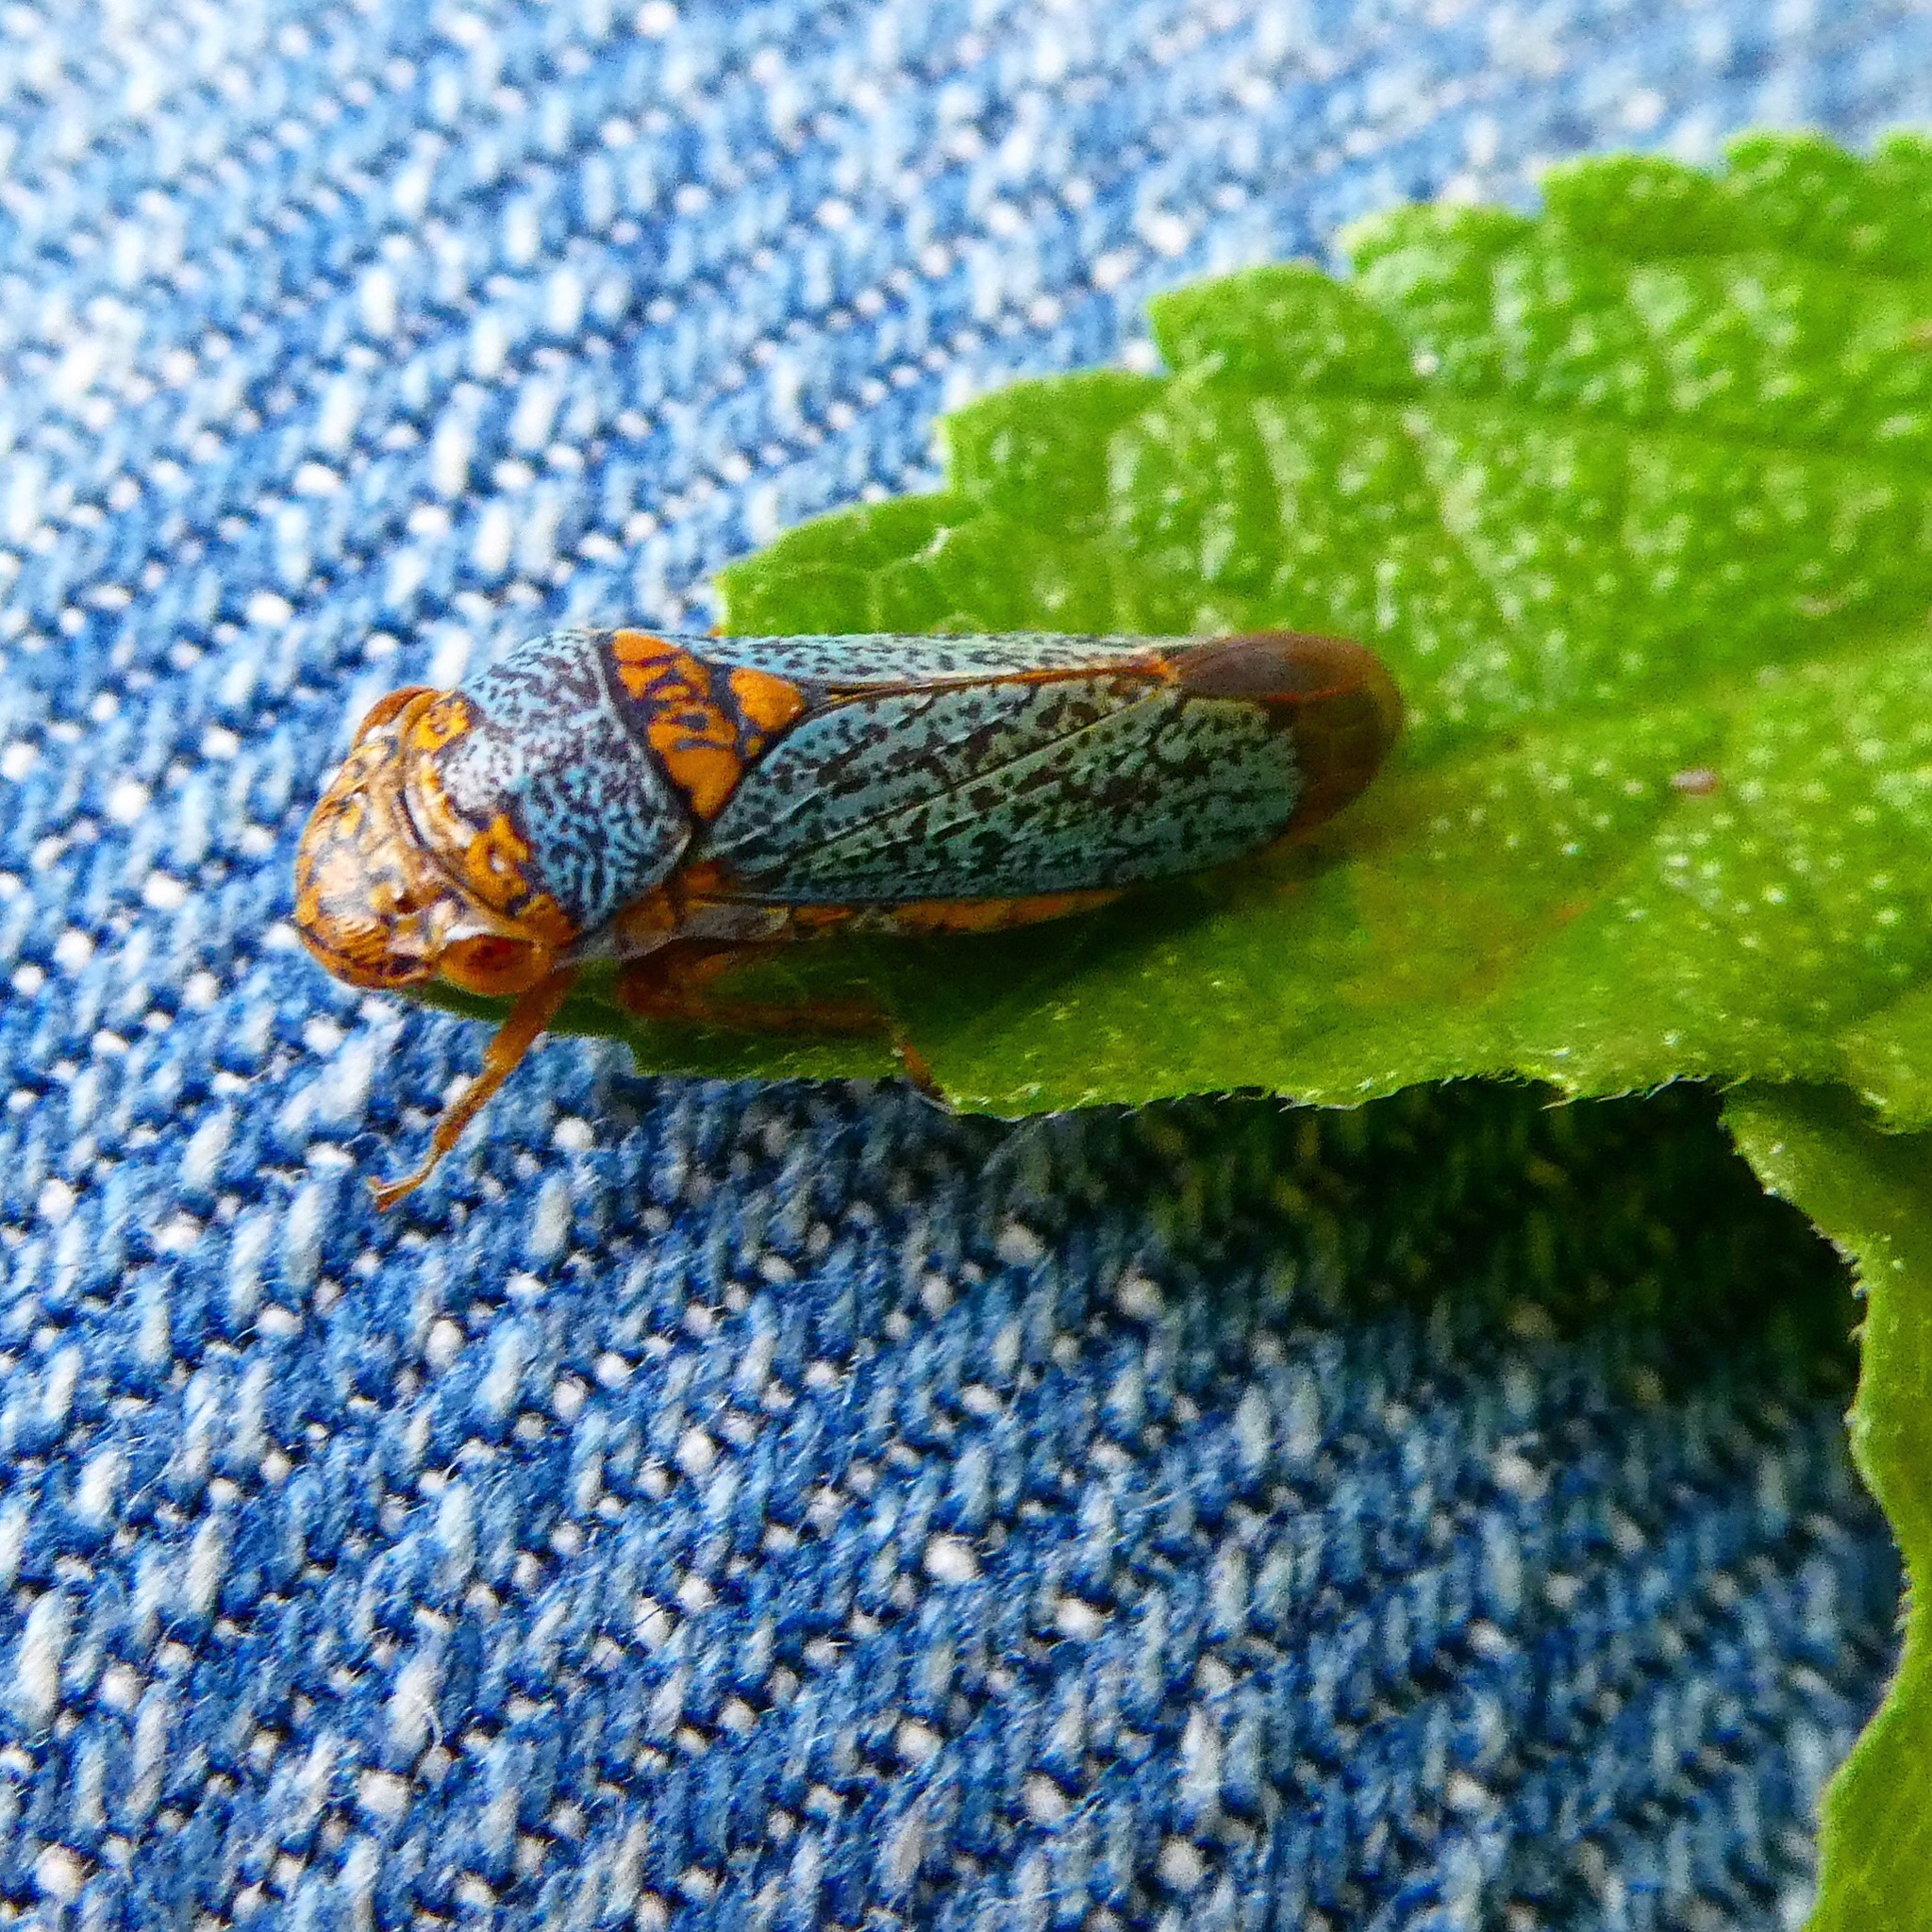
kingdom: Animalia
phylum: Arthropoda
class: Insecta
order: Hemiptera
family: Cicadellidae
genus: Oncometopia
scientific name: Oncometopia orbona
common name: Broad-headed sharpshooter
